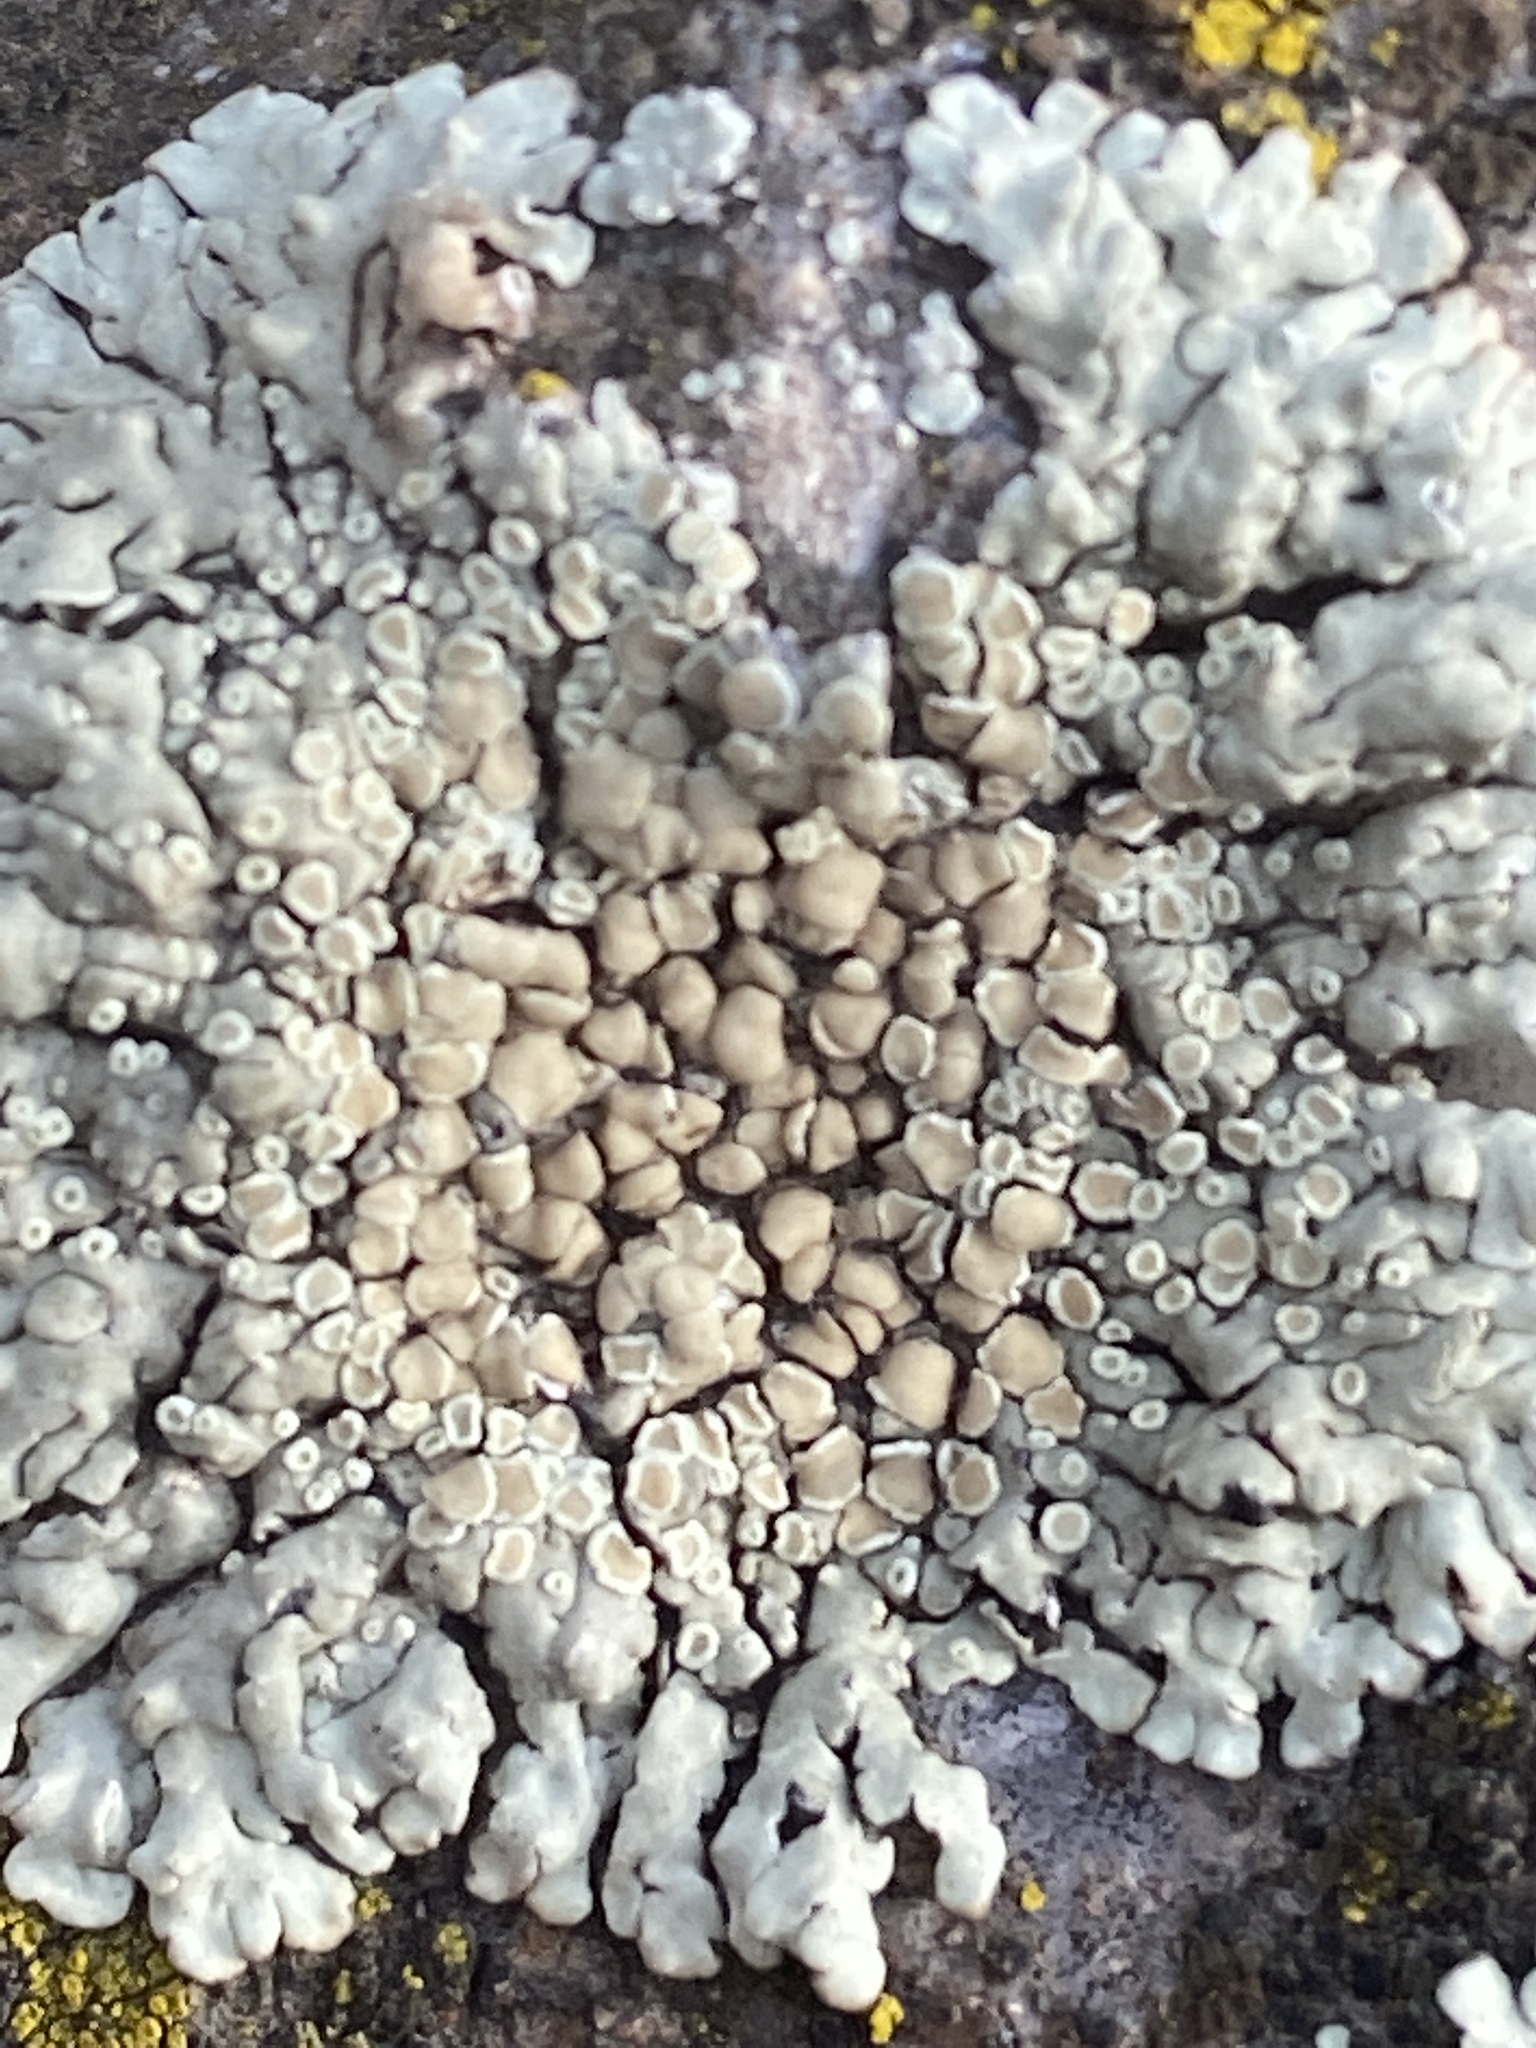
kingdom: Fungi
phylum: Ascomycota
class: Lecanoromycetes
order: Lecanorales
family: Lecanoraceae
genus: Protoparmeliopsis
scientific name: Protoparmeliopsis muralis
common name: Stonewall rim lichen
